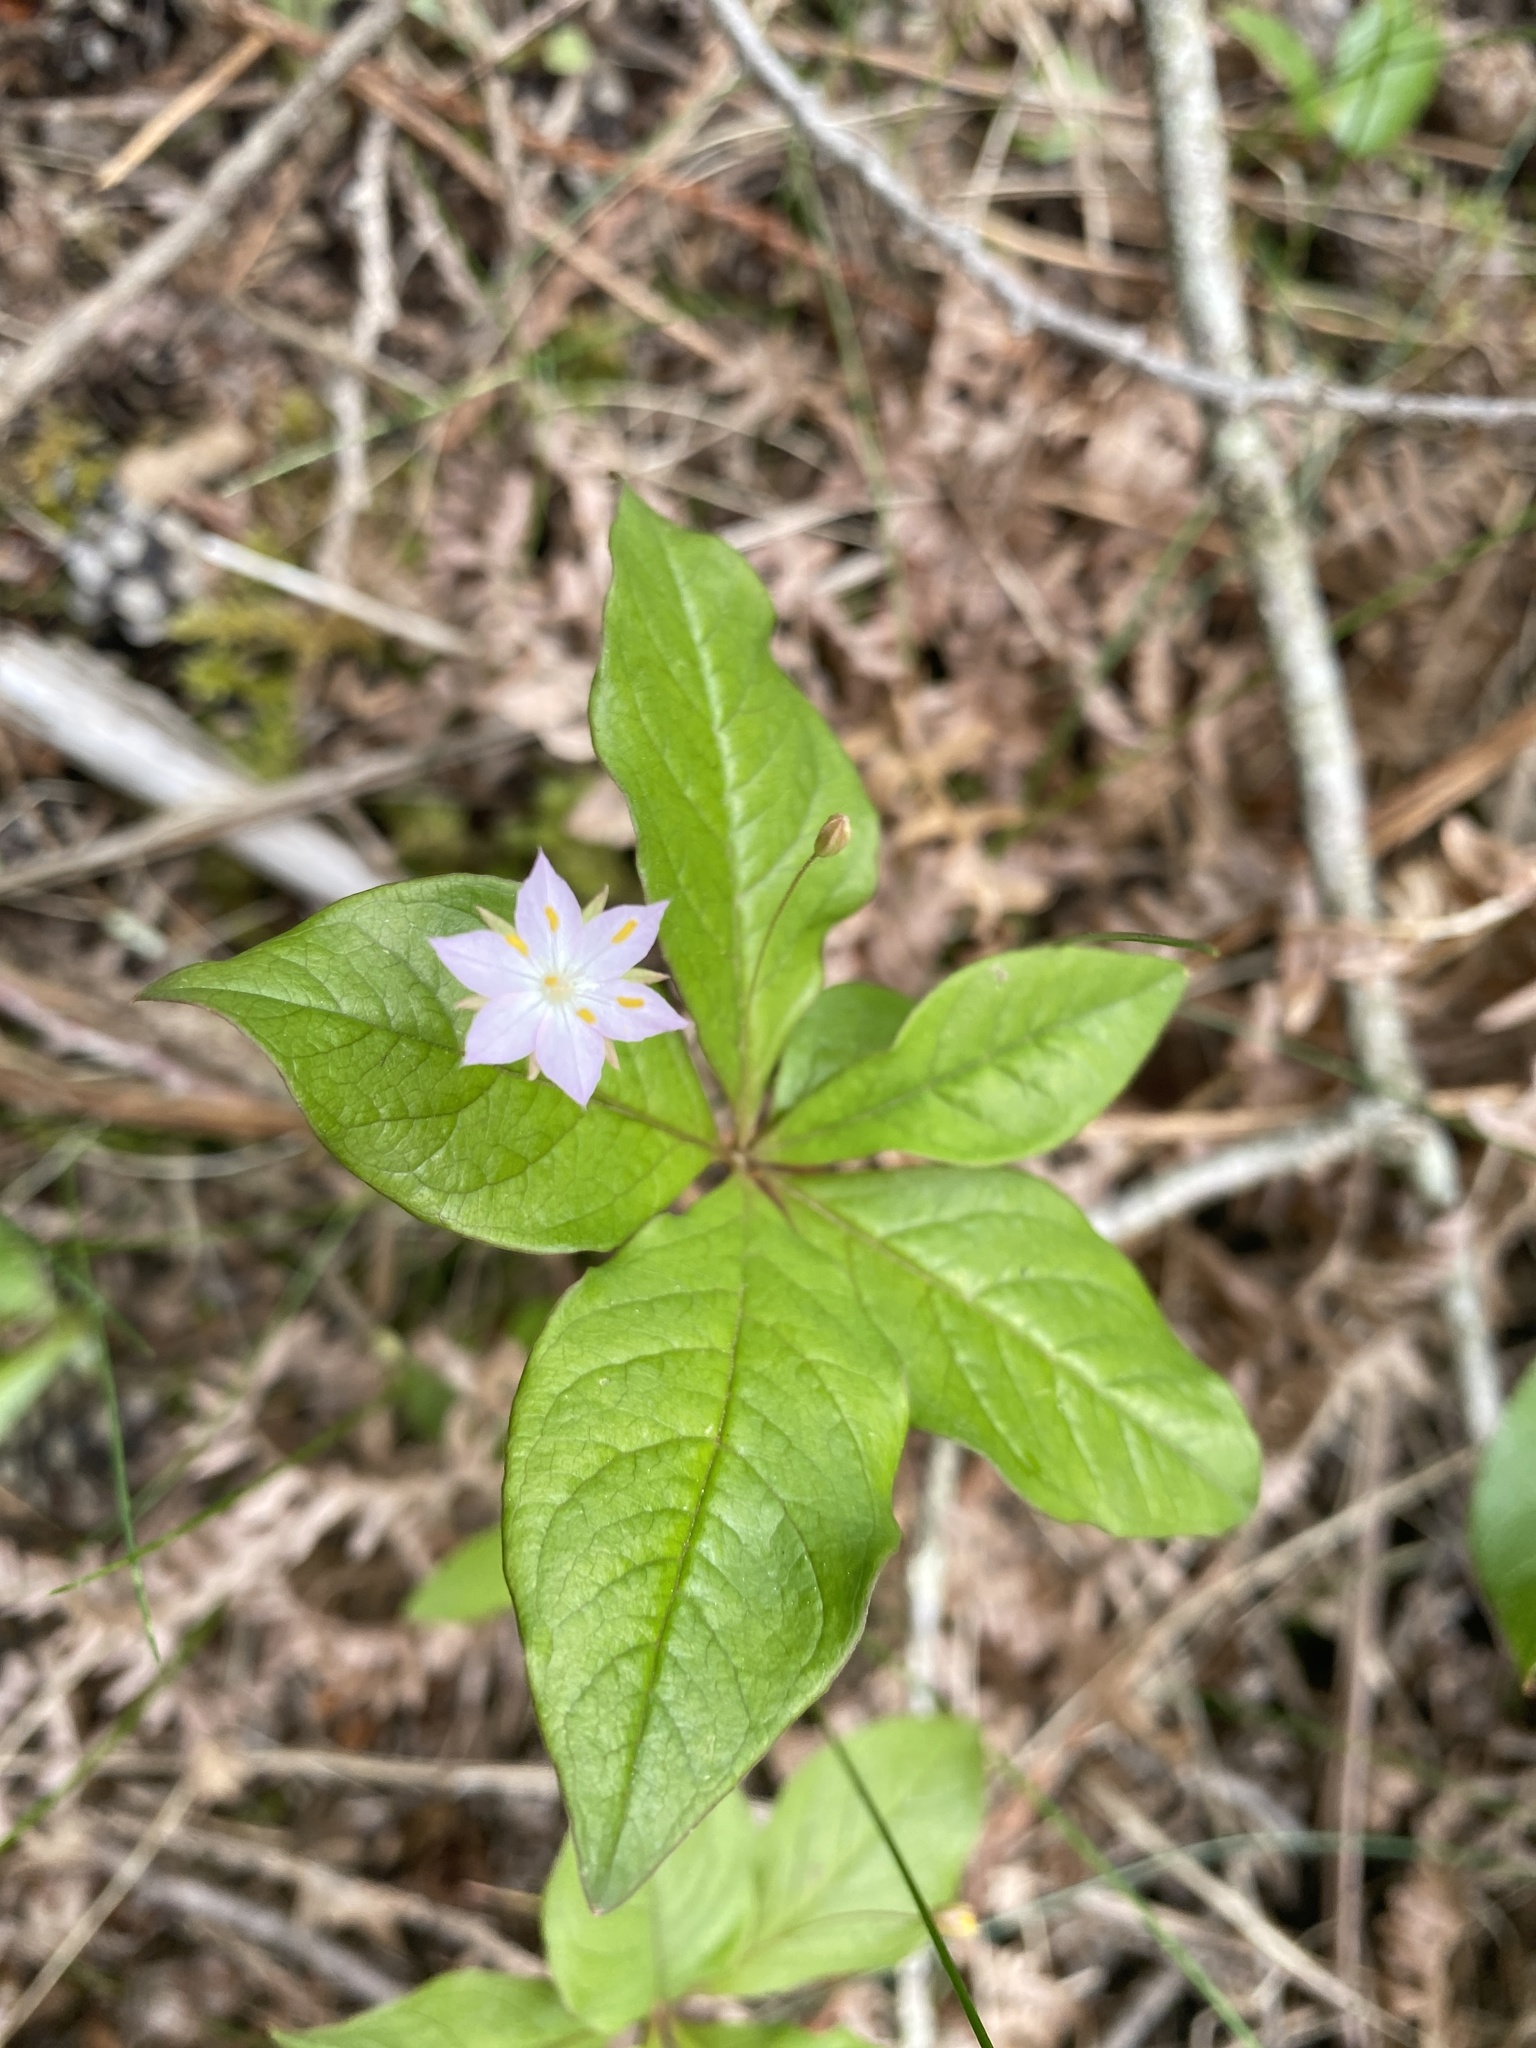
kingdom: Plantae
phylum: Tracheophyta
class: Magnoliopsida
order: Ericales
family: Primulaceae
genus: Lysimachia
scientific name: Lysimachia latifolia
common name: Pacific starflower
